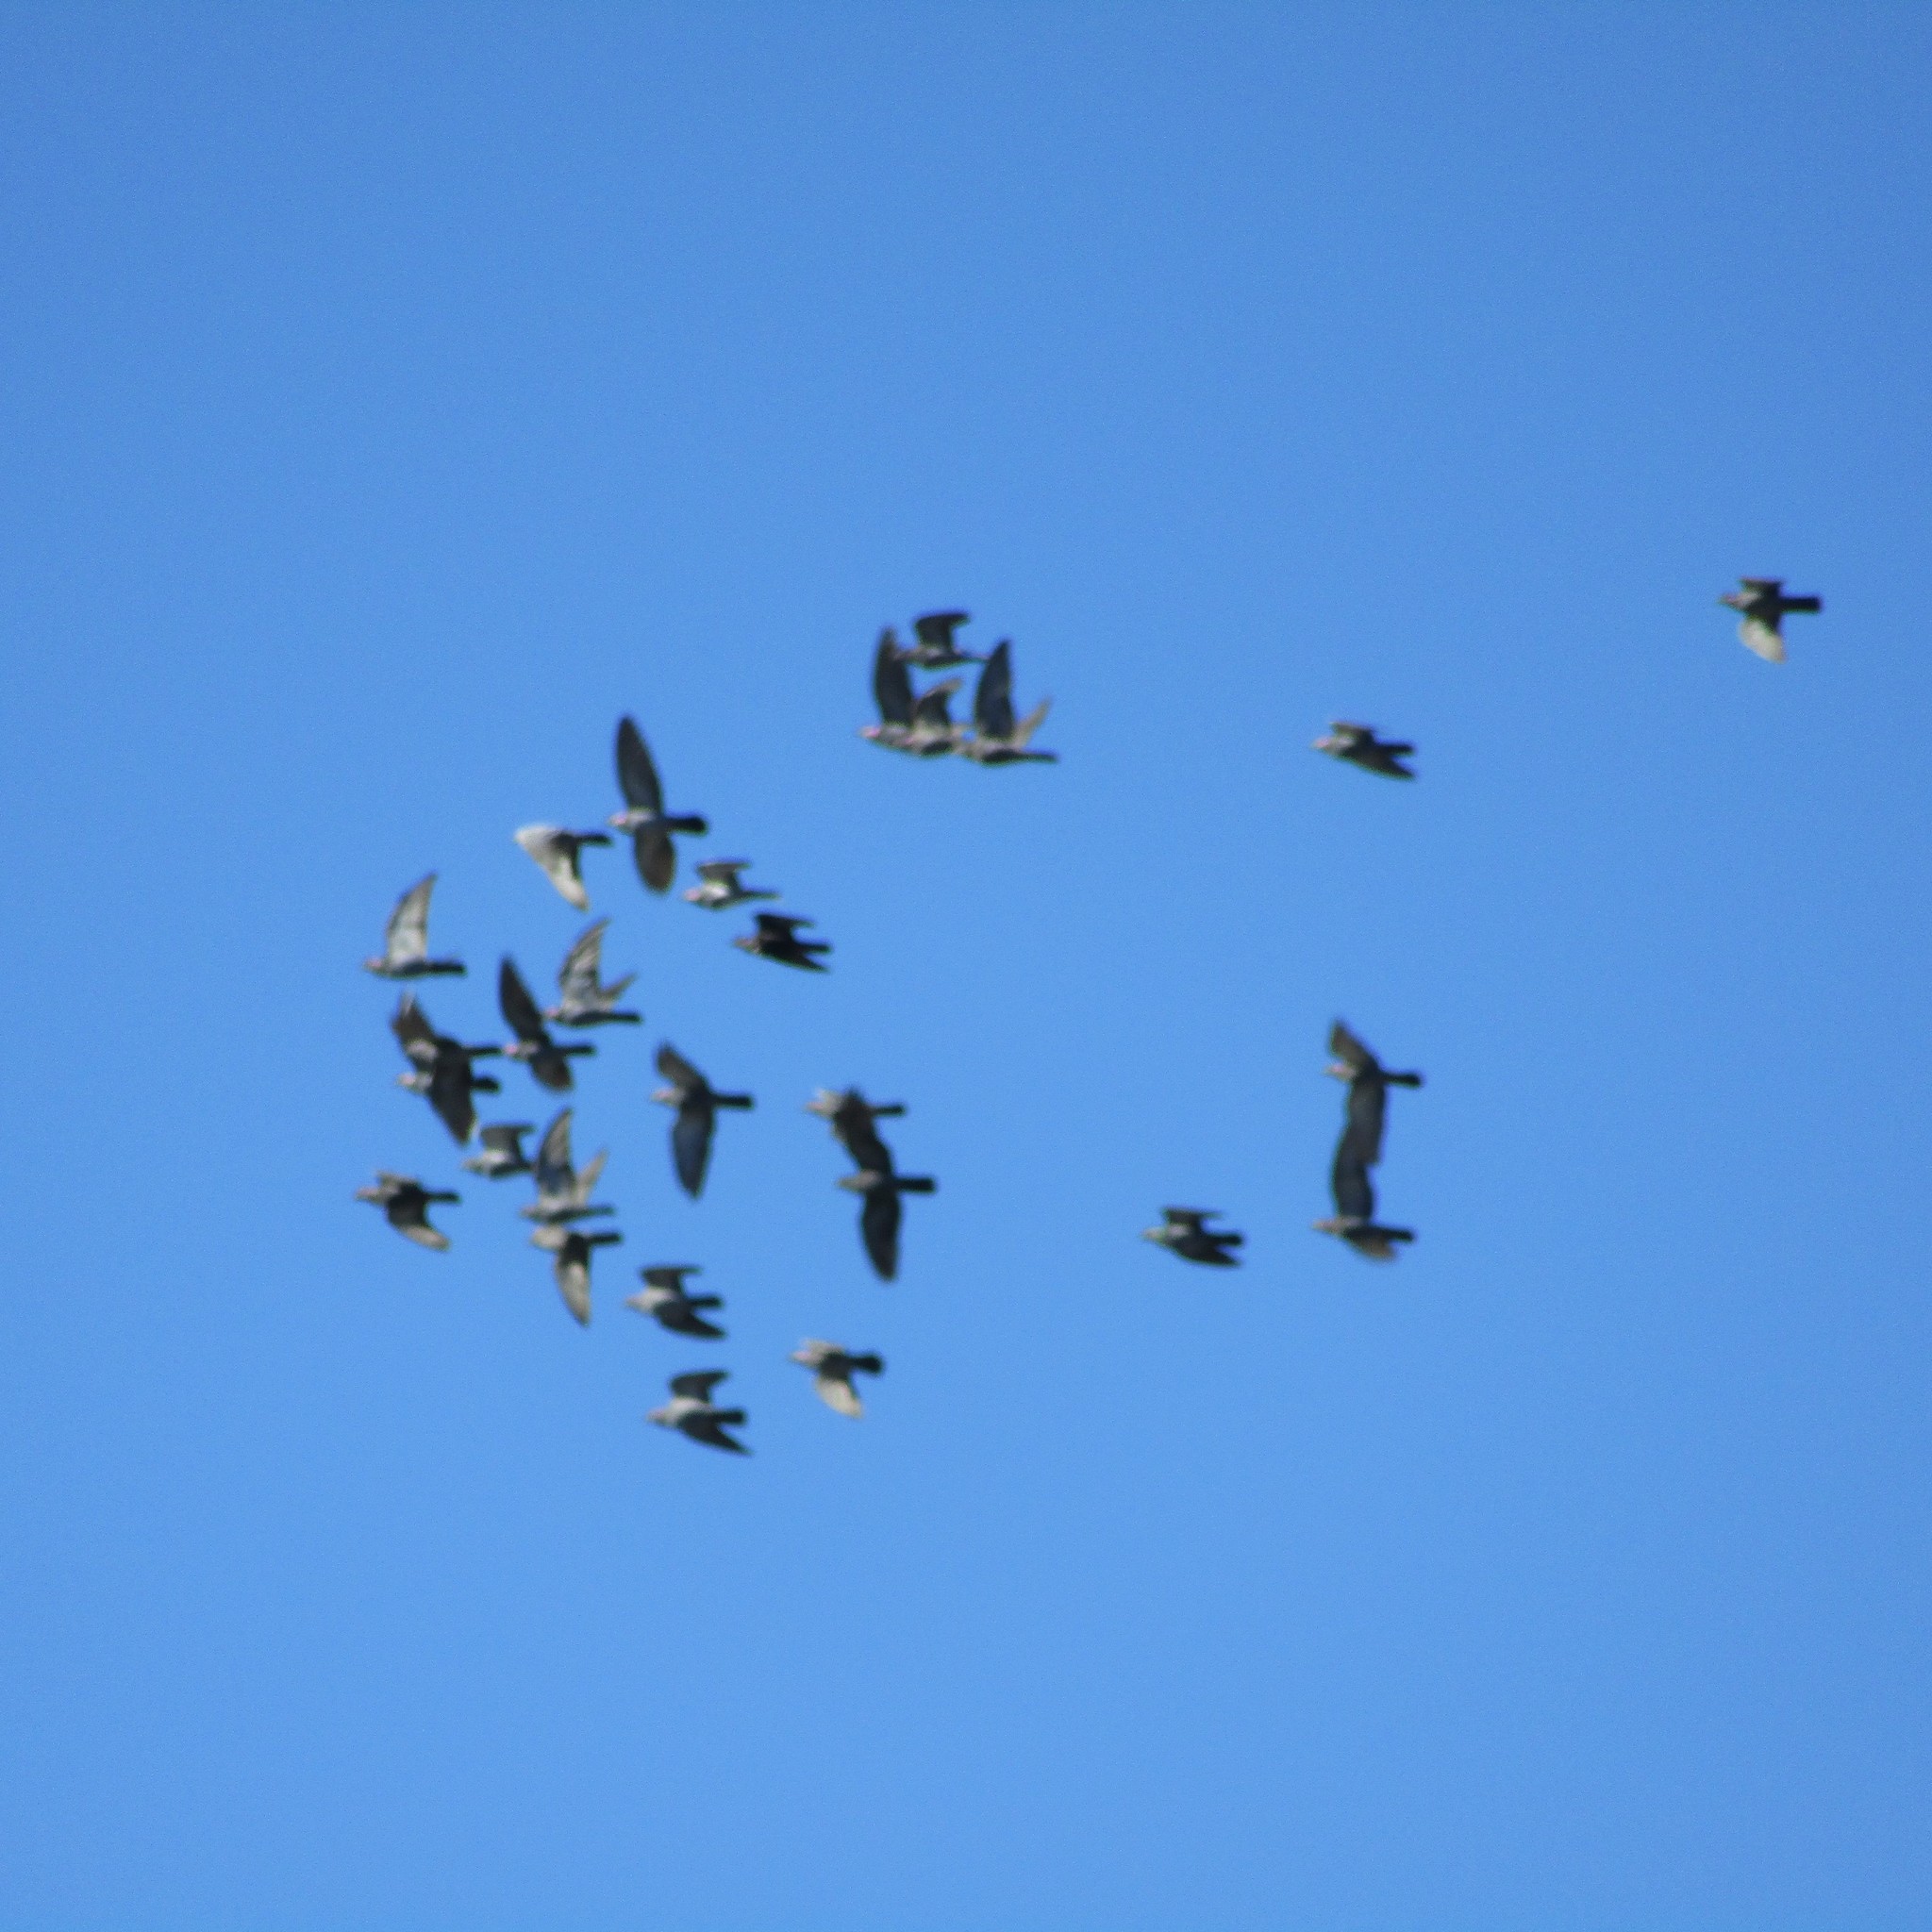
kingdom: Animalia
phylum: Chordata
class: Aves
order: Columbiformes
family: Columbidae
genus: Columba
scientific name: Columba livia
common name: Rock pigeon
